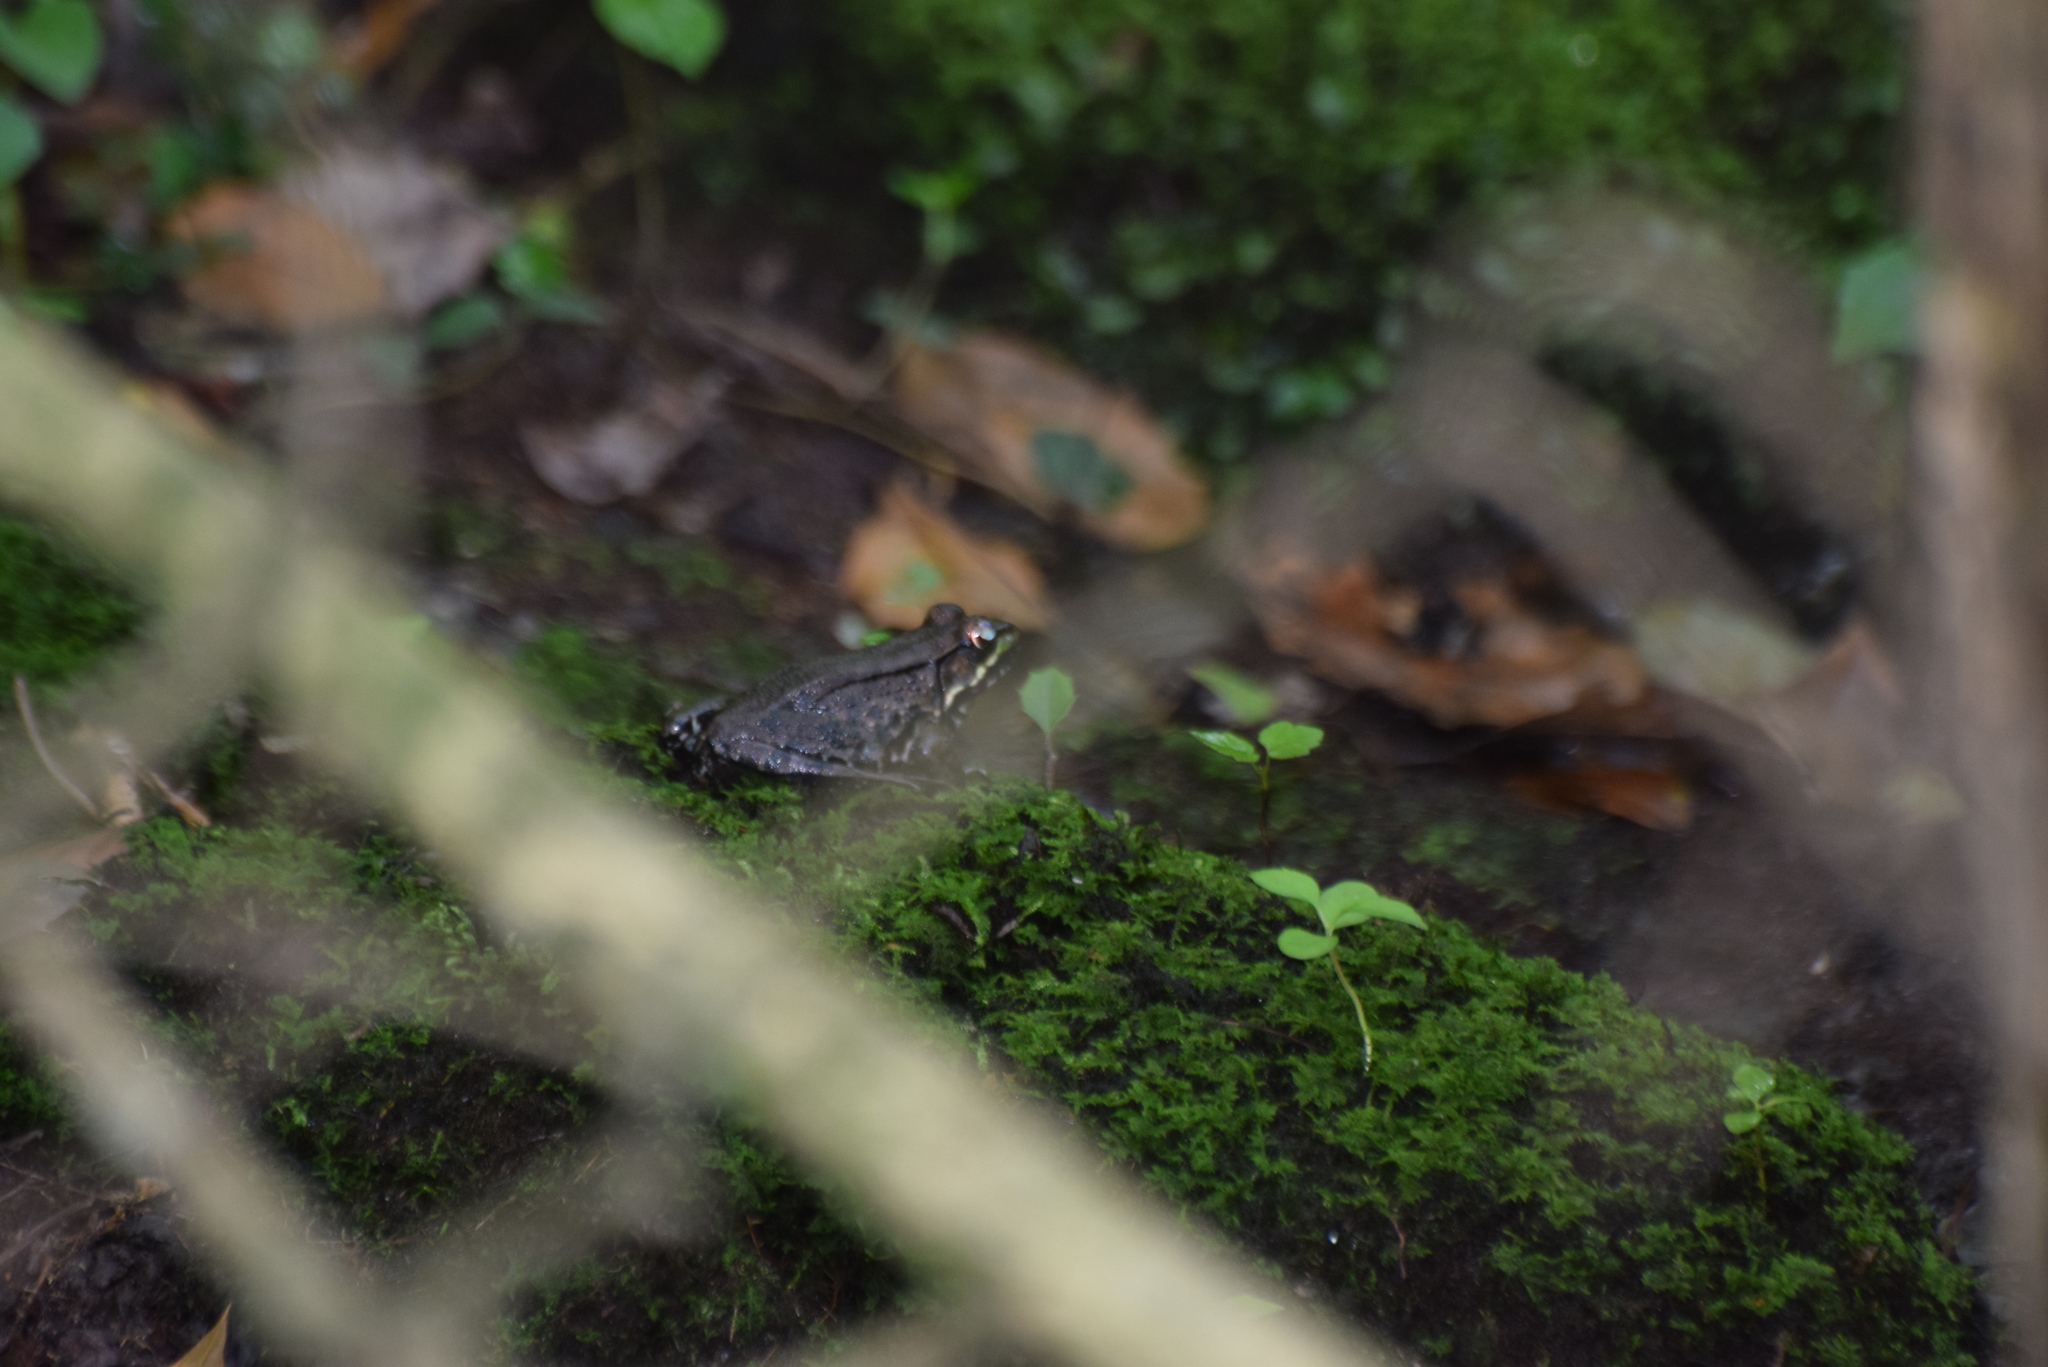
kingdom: Animalia
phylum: Chordata
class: Amphibia
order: Anura
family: Ranidae
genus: Lithobates
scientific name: Lithobates clamitans
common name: Green frog
